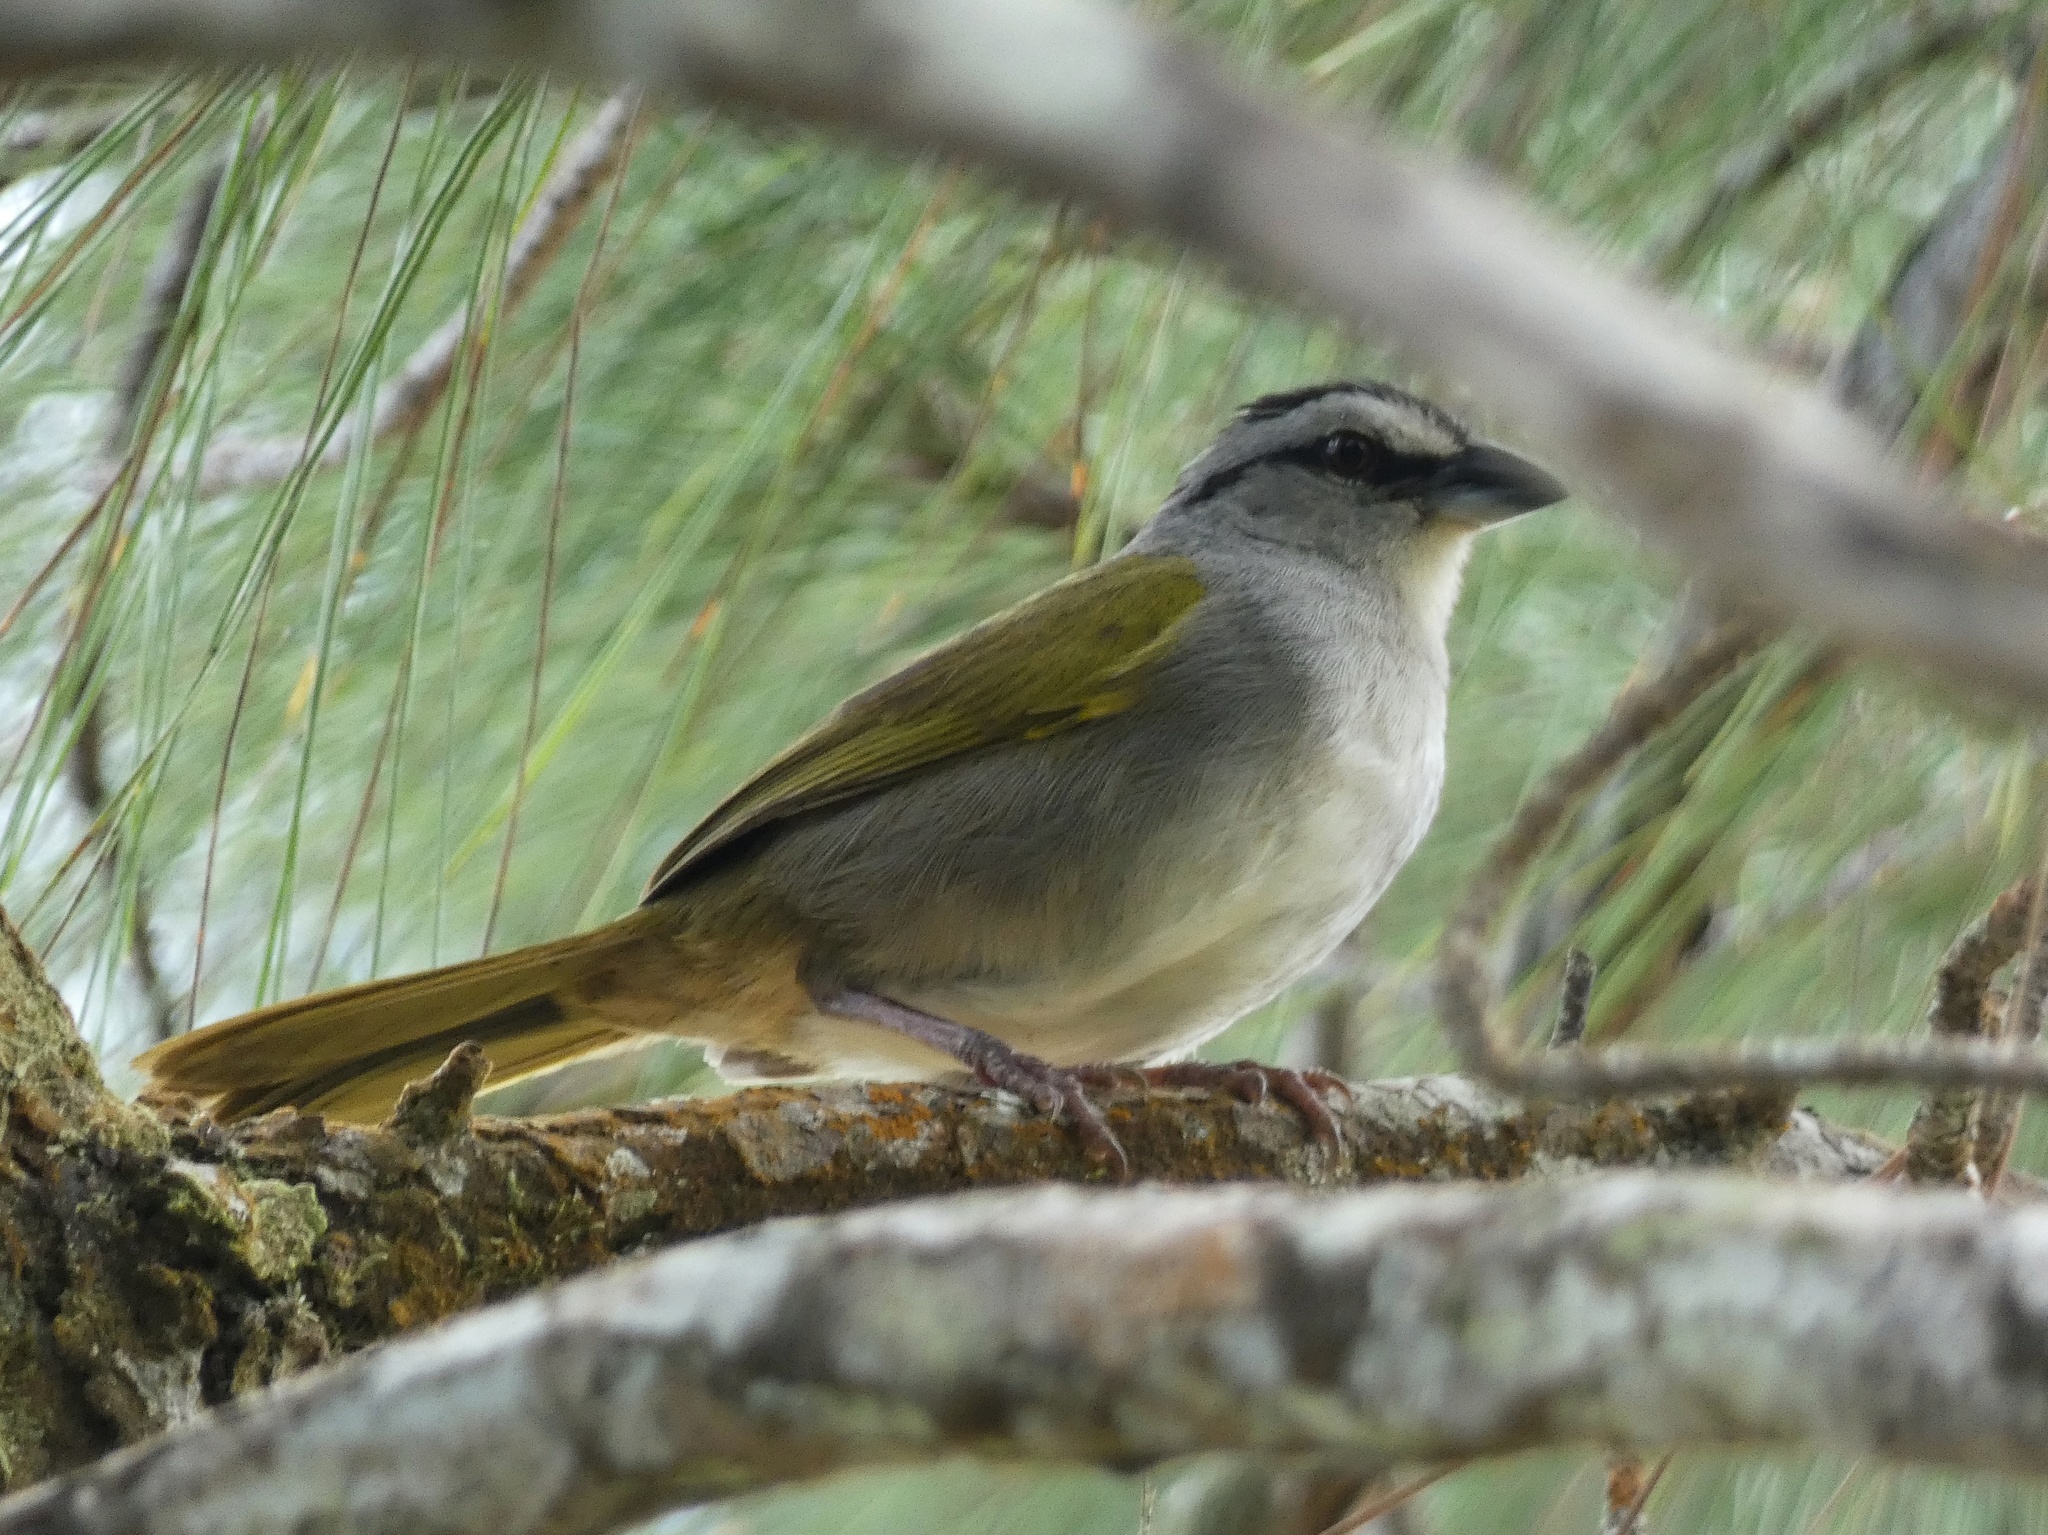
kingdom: Animalia
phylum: Chordata
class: Aves
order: Passeriformes
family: Passerellidae
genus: Arremonops
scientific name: Arremonops conirostris
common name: Black-striped sparrow
